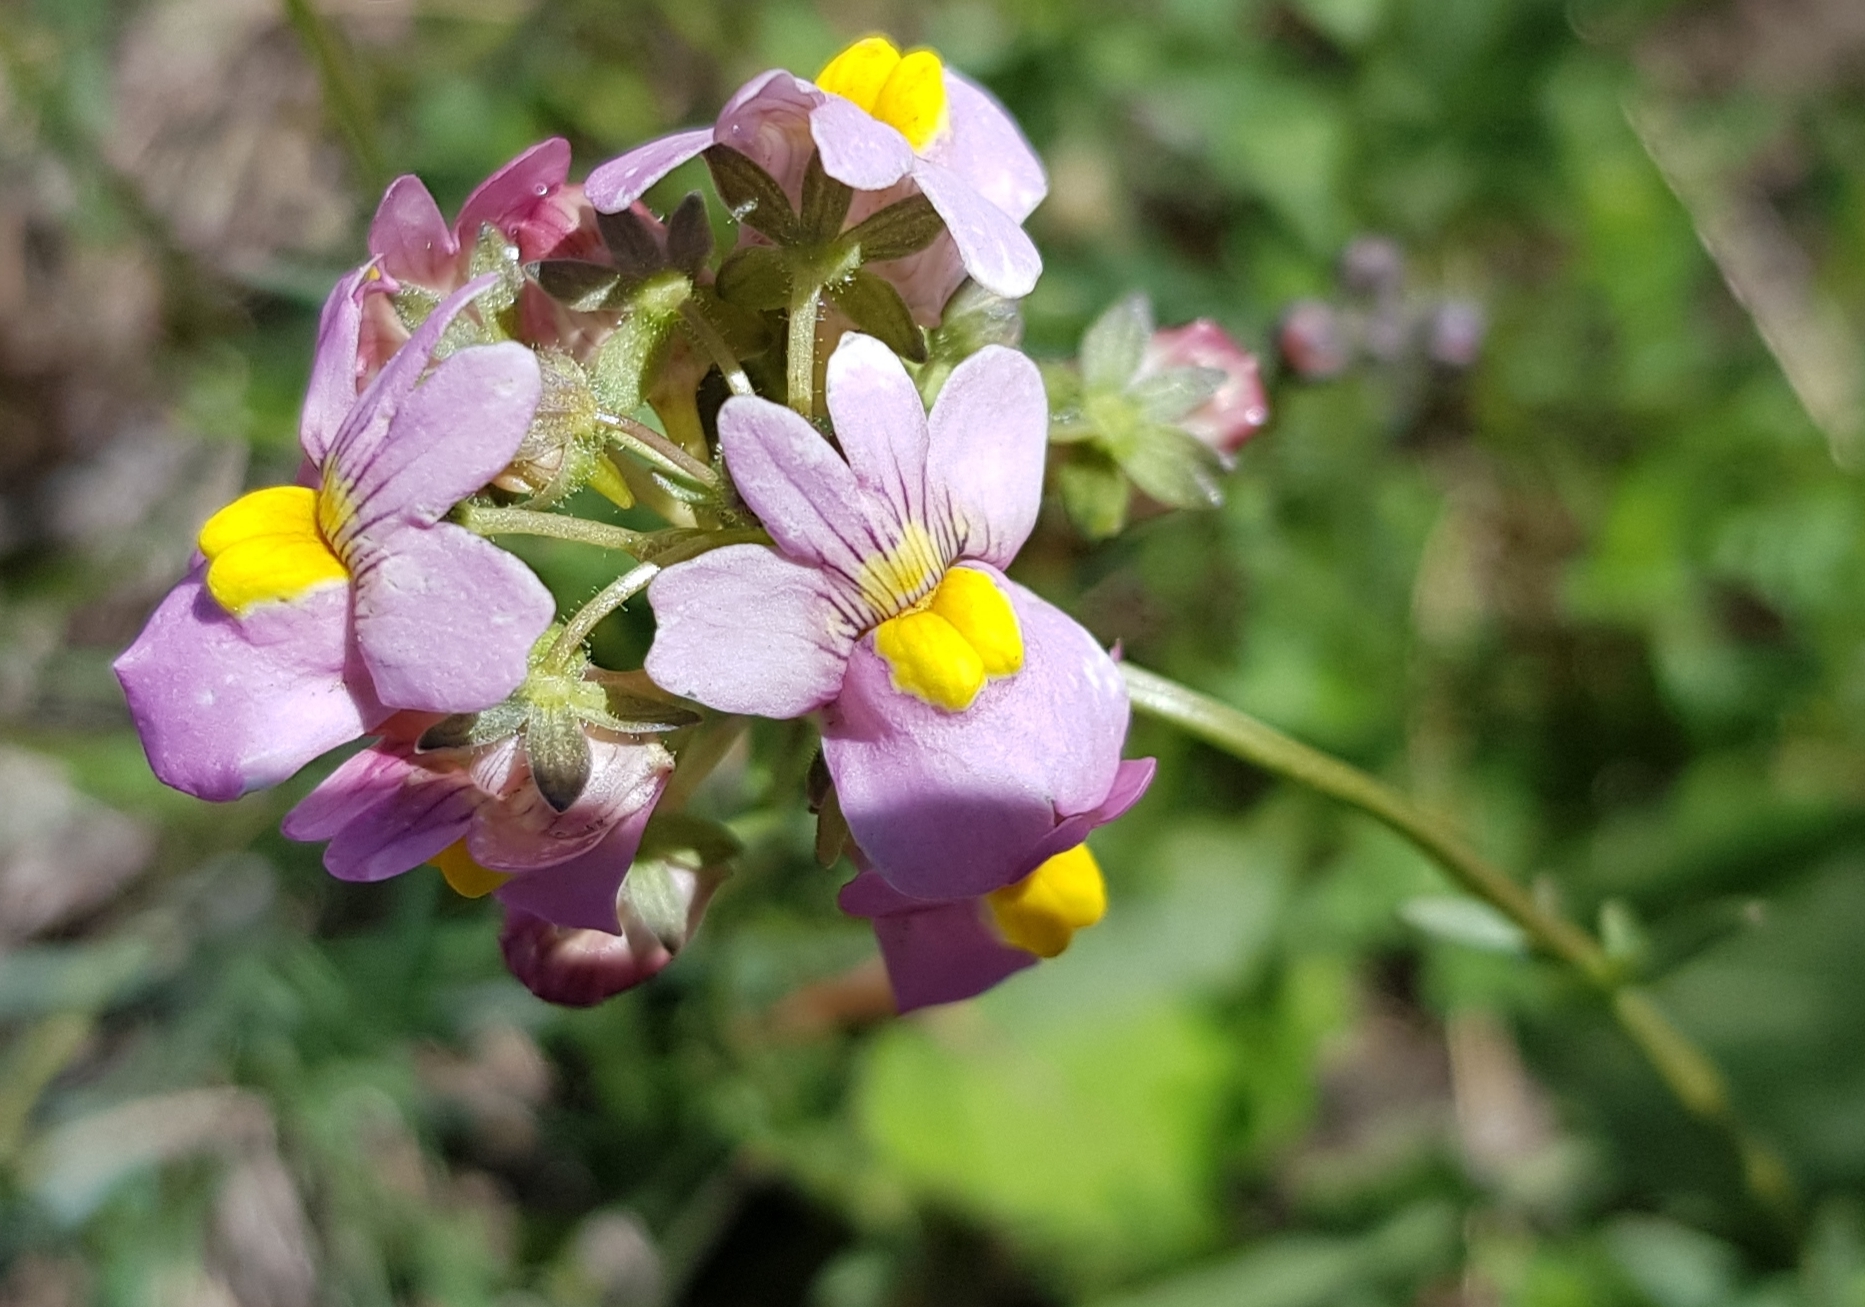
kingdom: Plantae
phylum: Tracheophyta
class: Magnoliopsida
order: Lamiales
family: Scrophulariaceae
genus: Nemesia
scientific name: Nemesia fruticans
